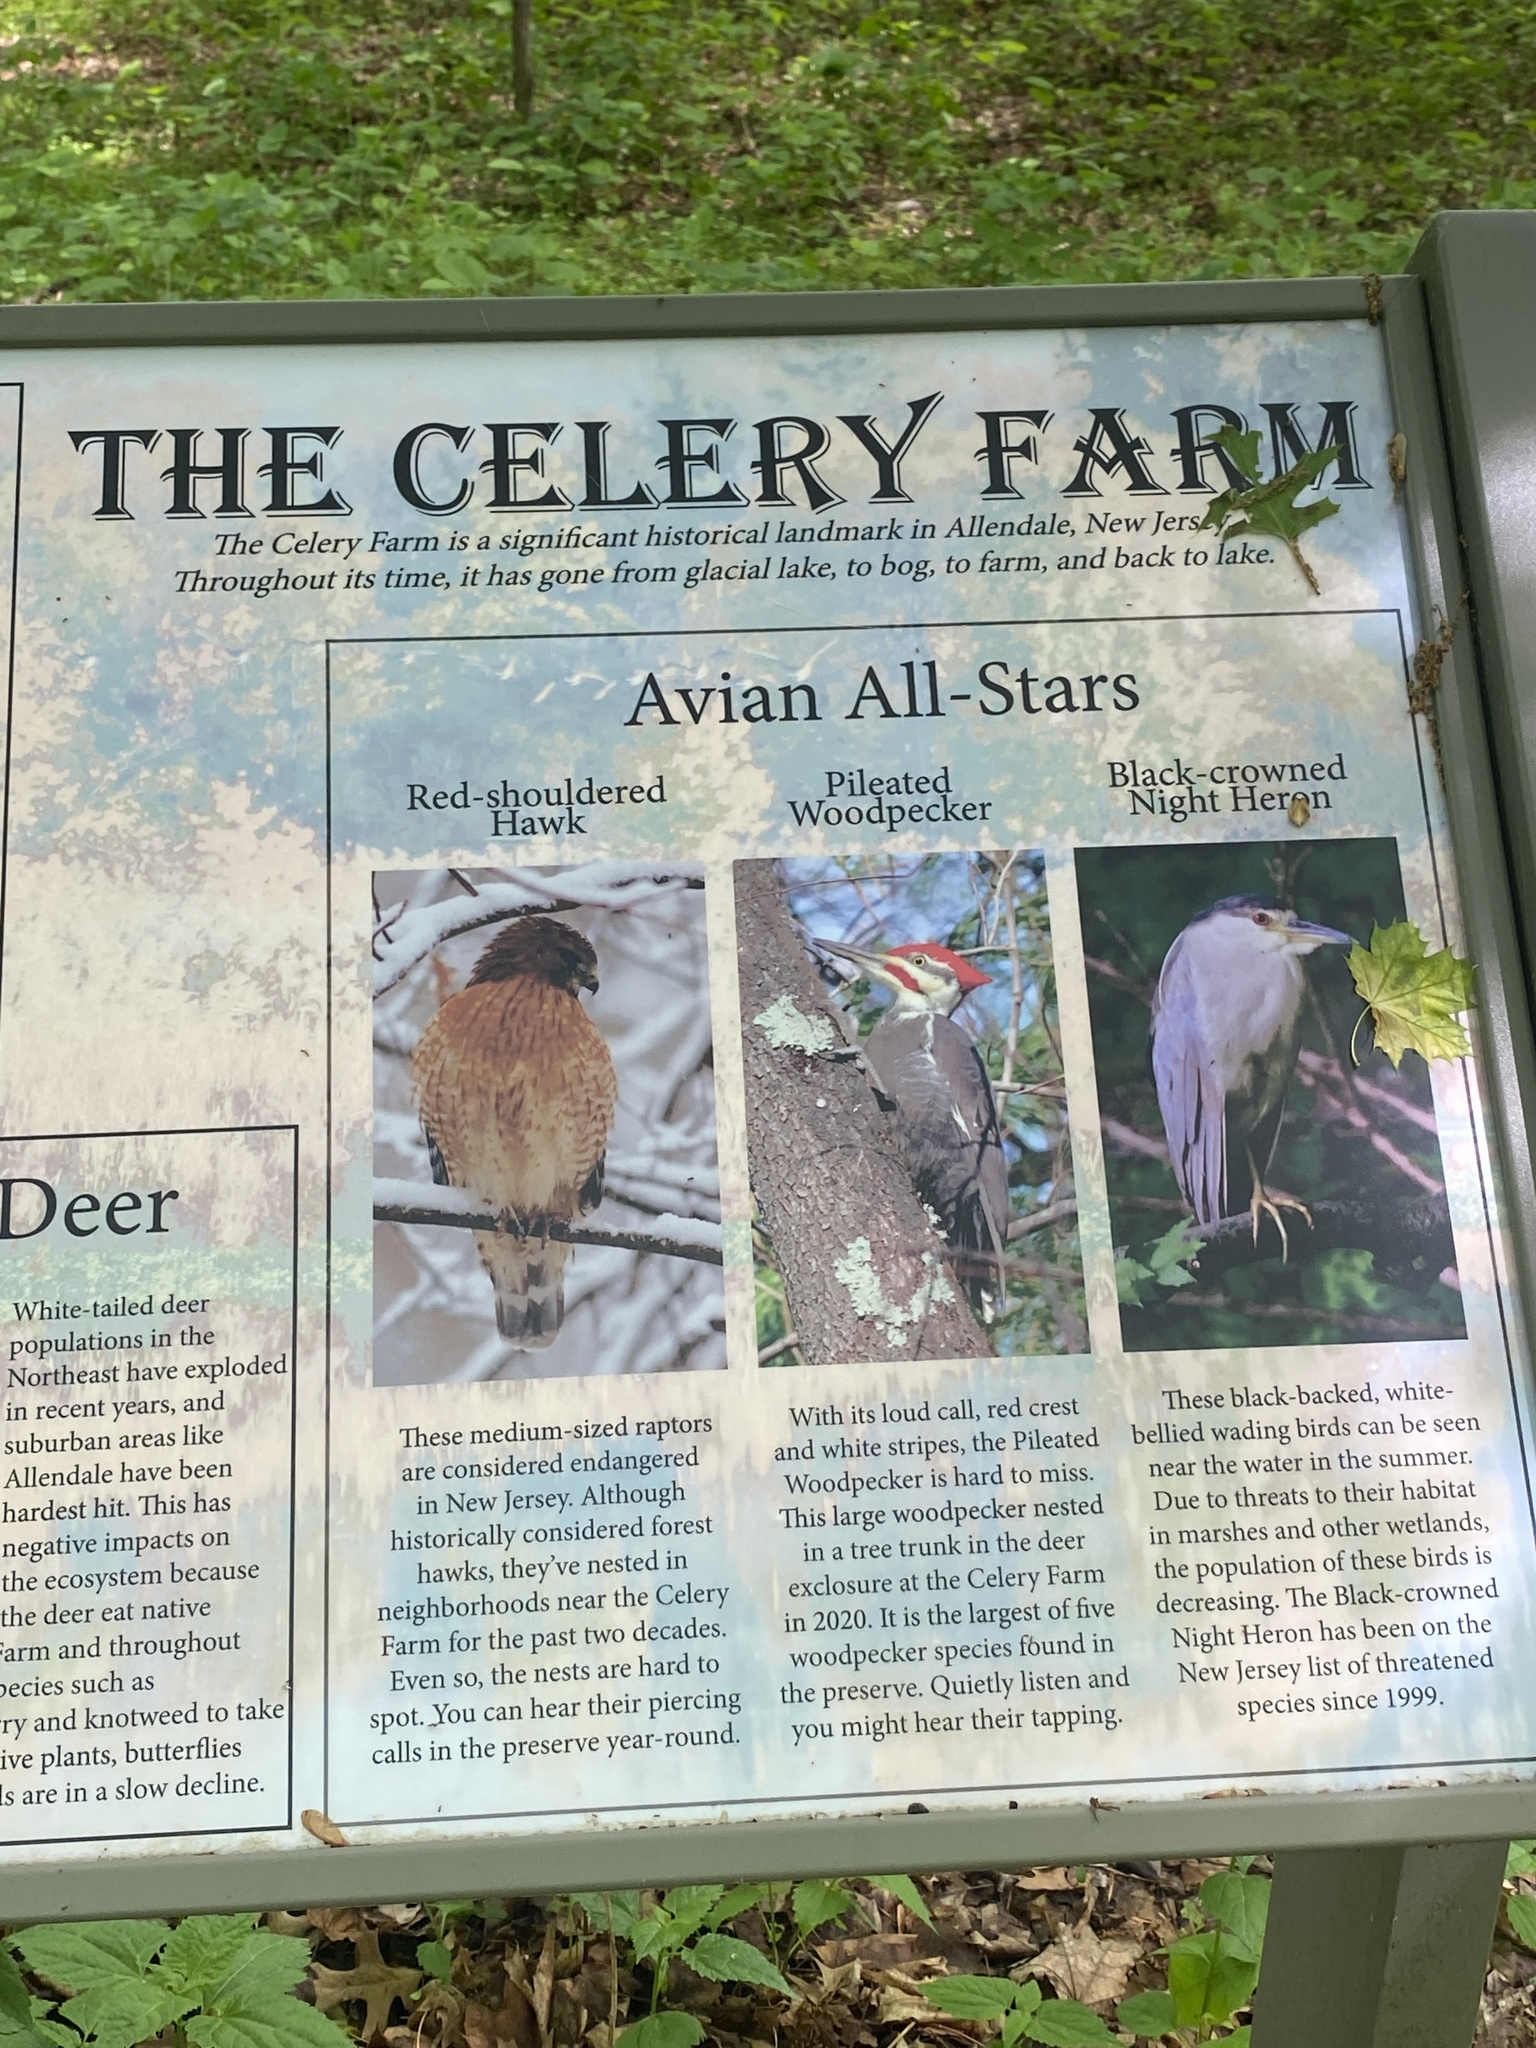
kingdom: Plantae
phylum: Tracheophyta
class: Magnoliopsida
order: Sapindales
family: Anacardiaceae
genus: Toxicodendron
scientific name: Toxicodendron radicans
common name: Poison ivy
